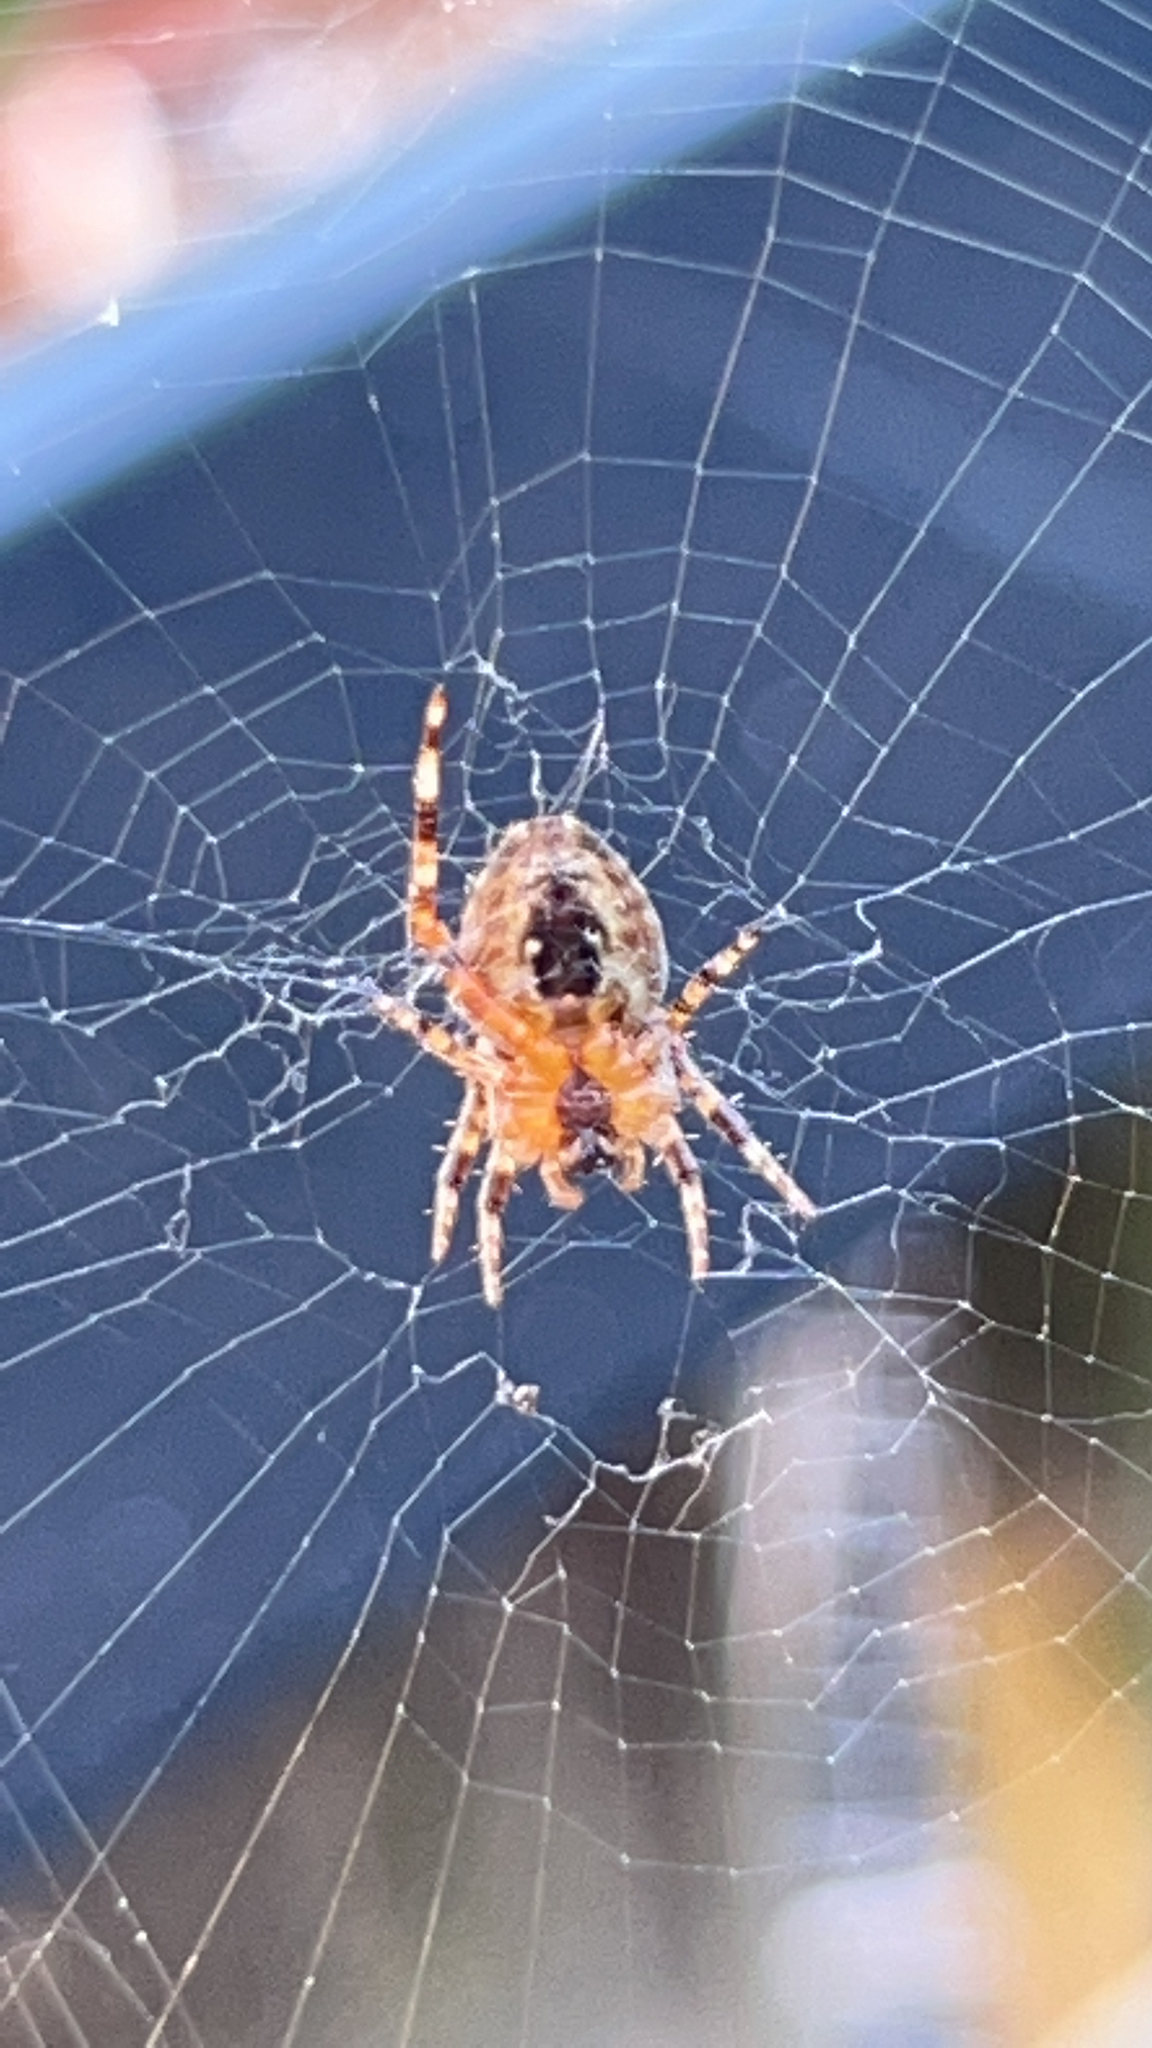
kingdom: Animalia
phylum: Arthropoda
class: Arachnida
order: Araneae
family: Araneidae
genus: Araneus
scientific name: Araneus diadematus
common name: Cross orbweaver
